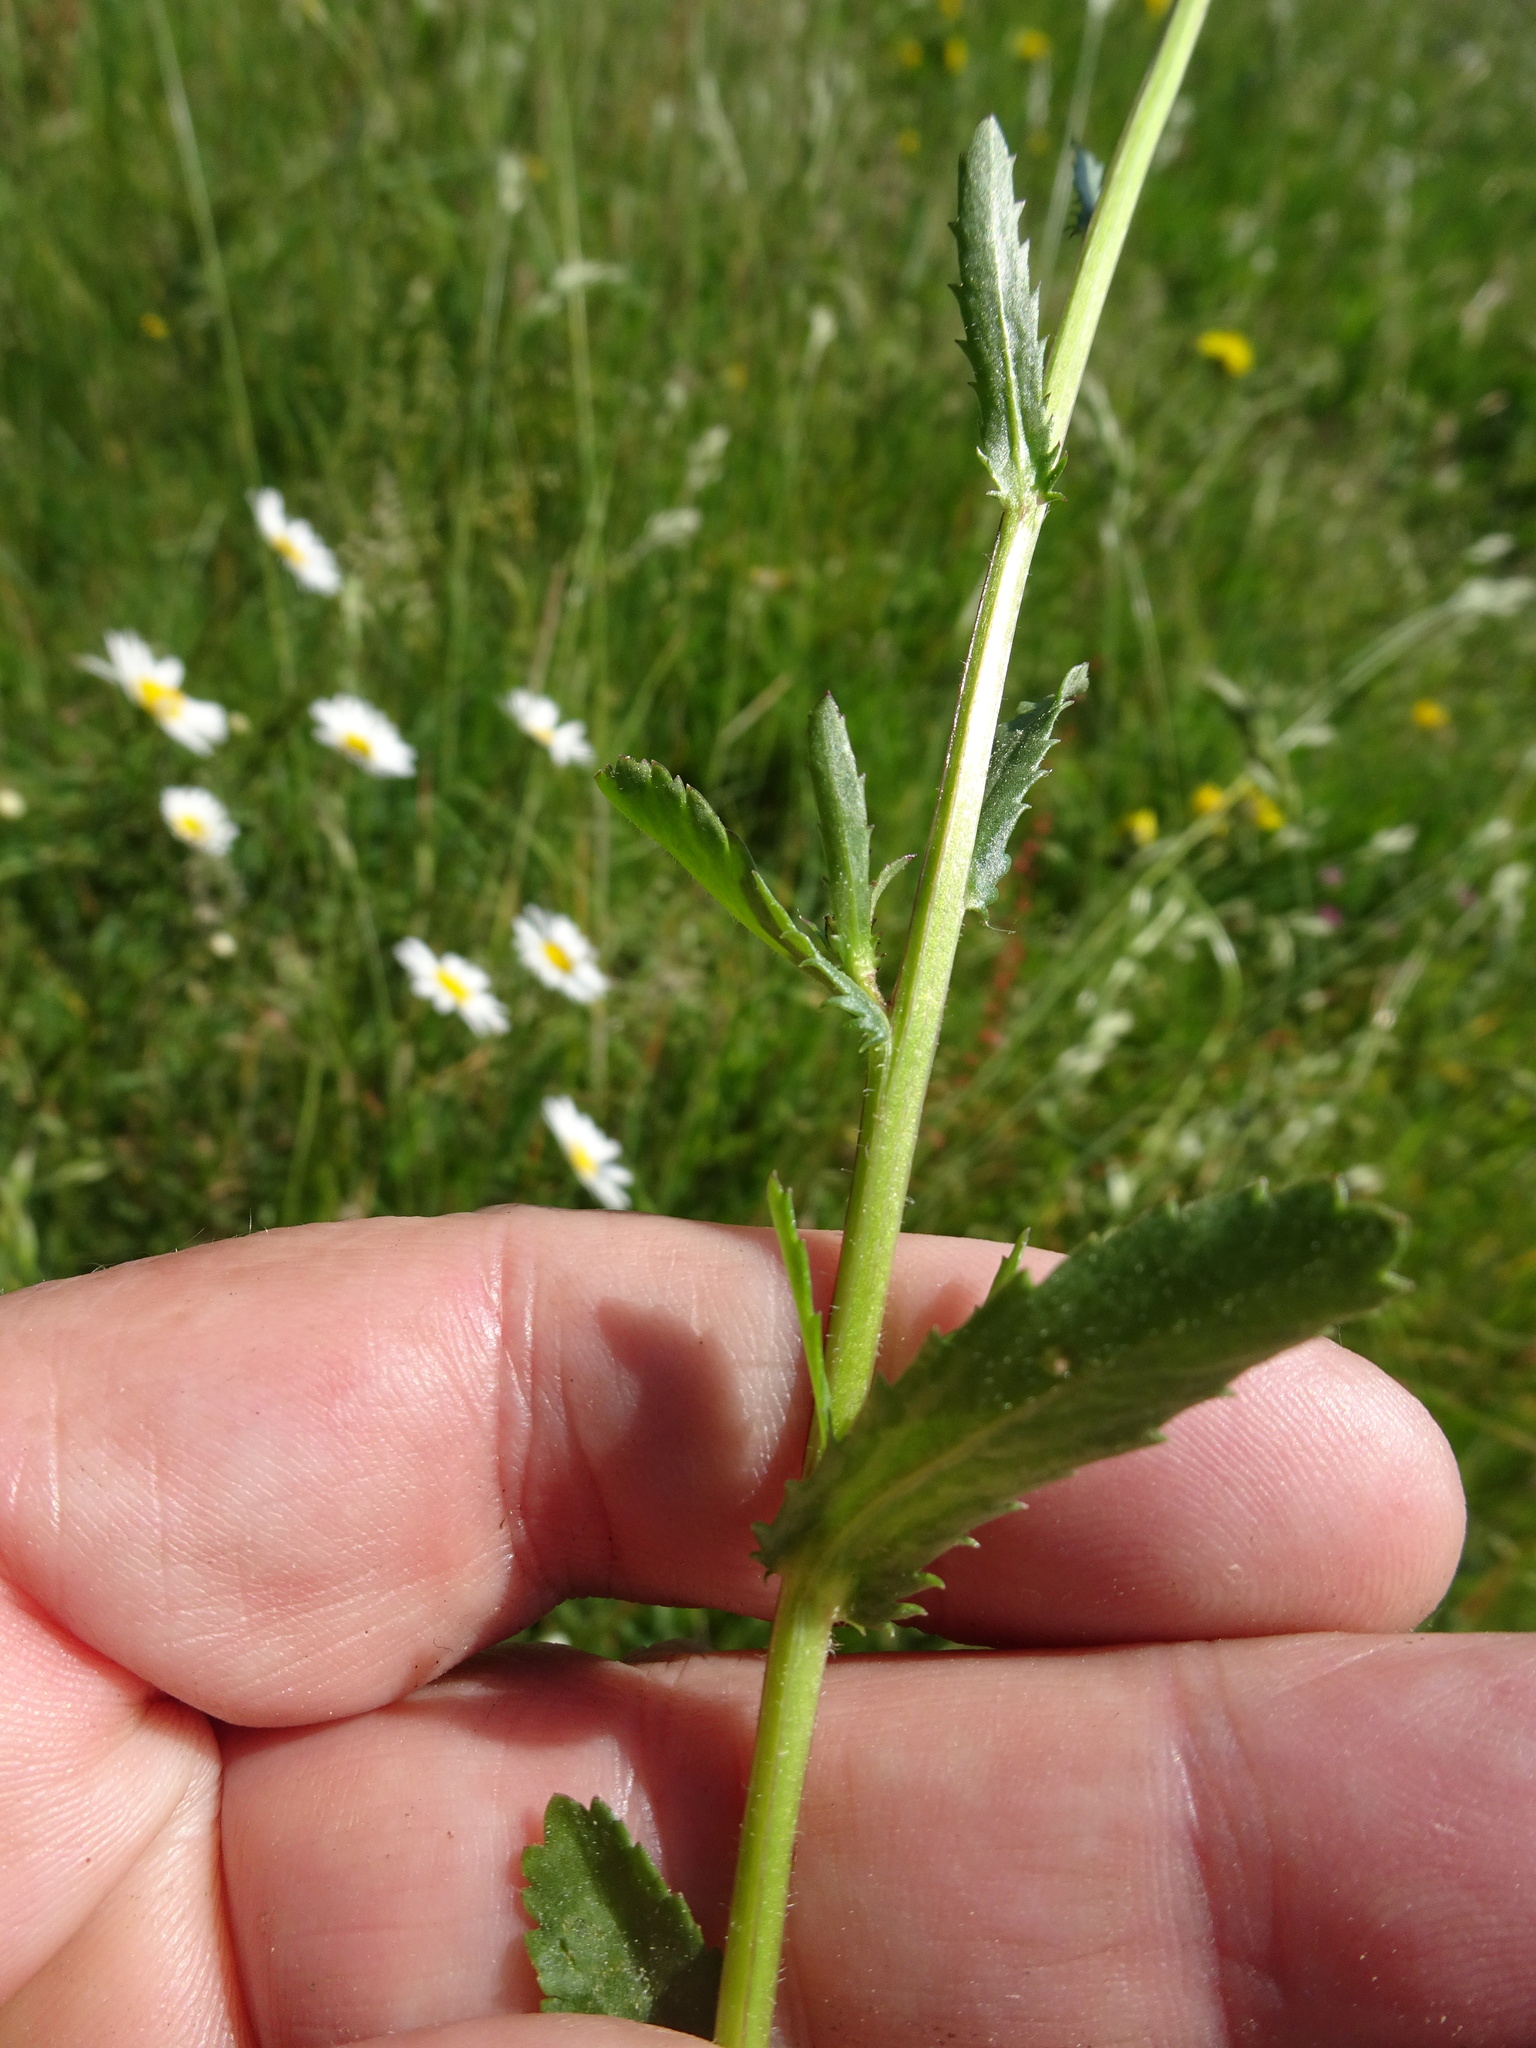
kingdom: Plantae
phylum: Tracheophyta
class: Magnoliopsida
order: Asterales
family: Asteraceae
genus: Leucanthemum
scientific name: Leucanthemum vulgare
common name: Oxeye daisy
